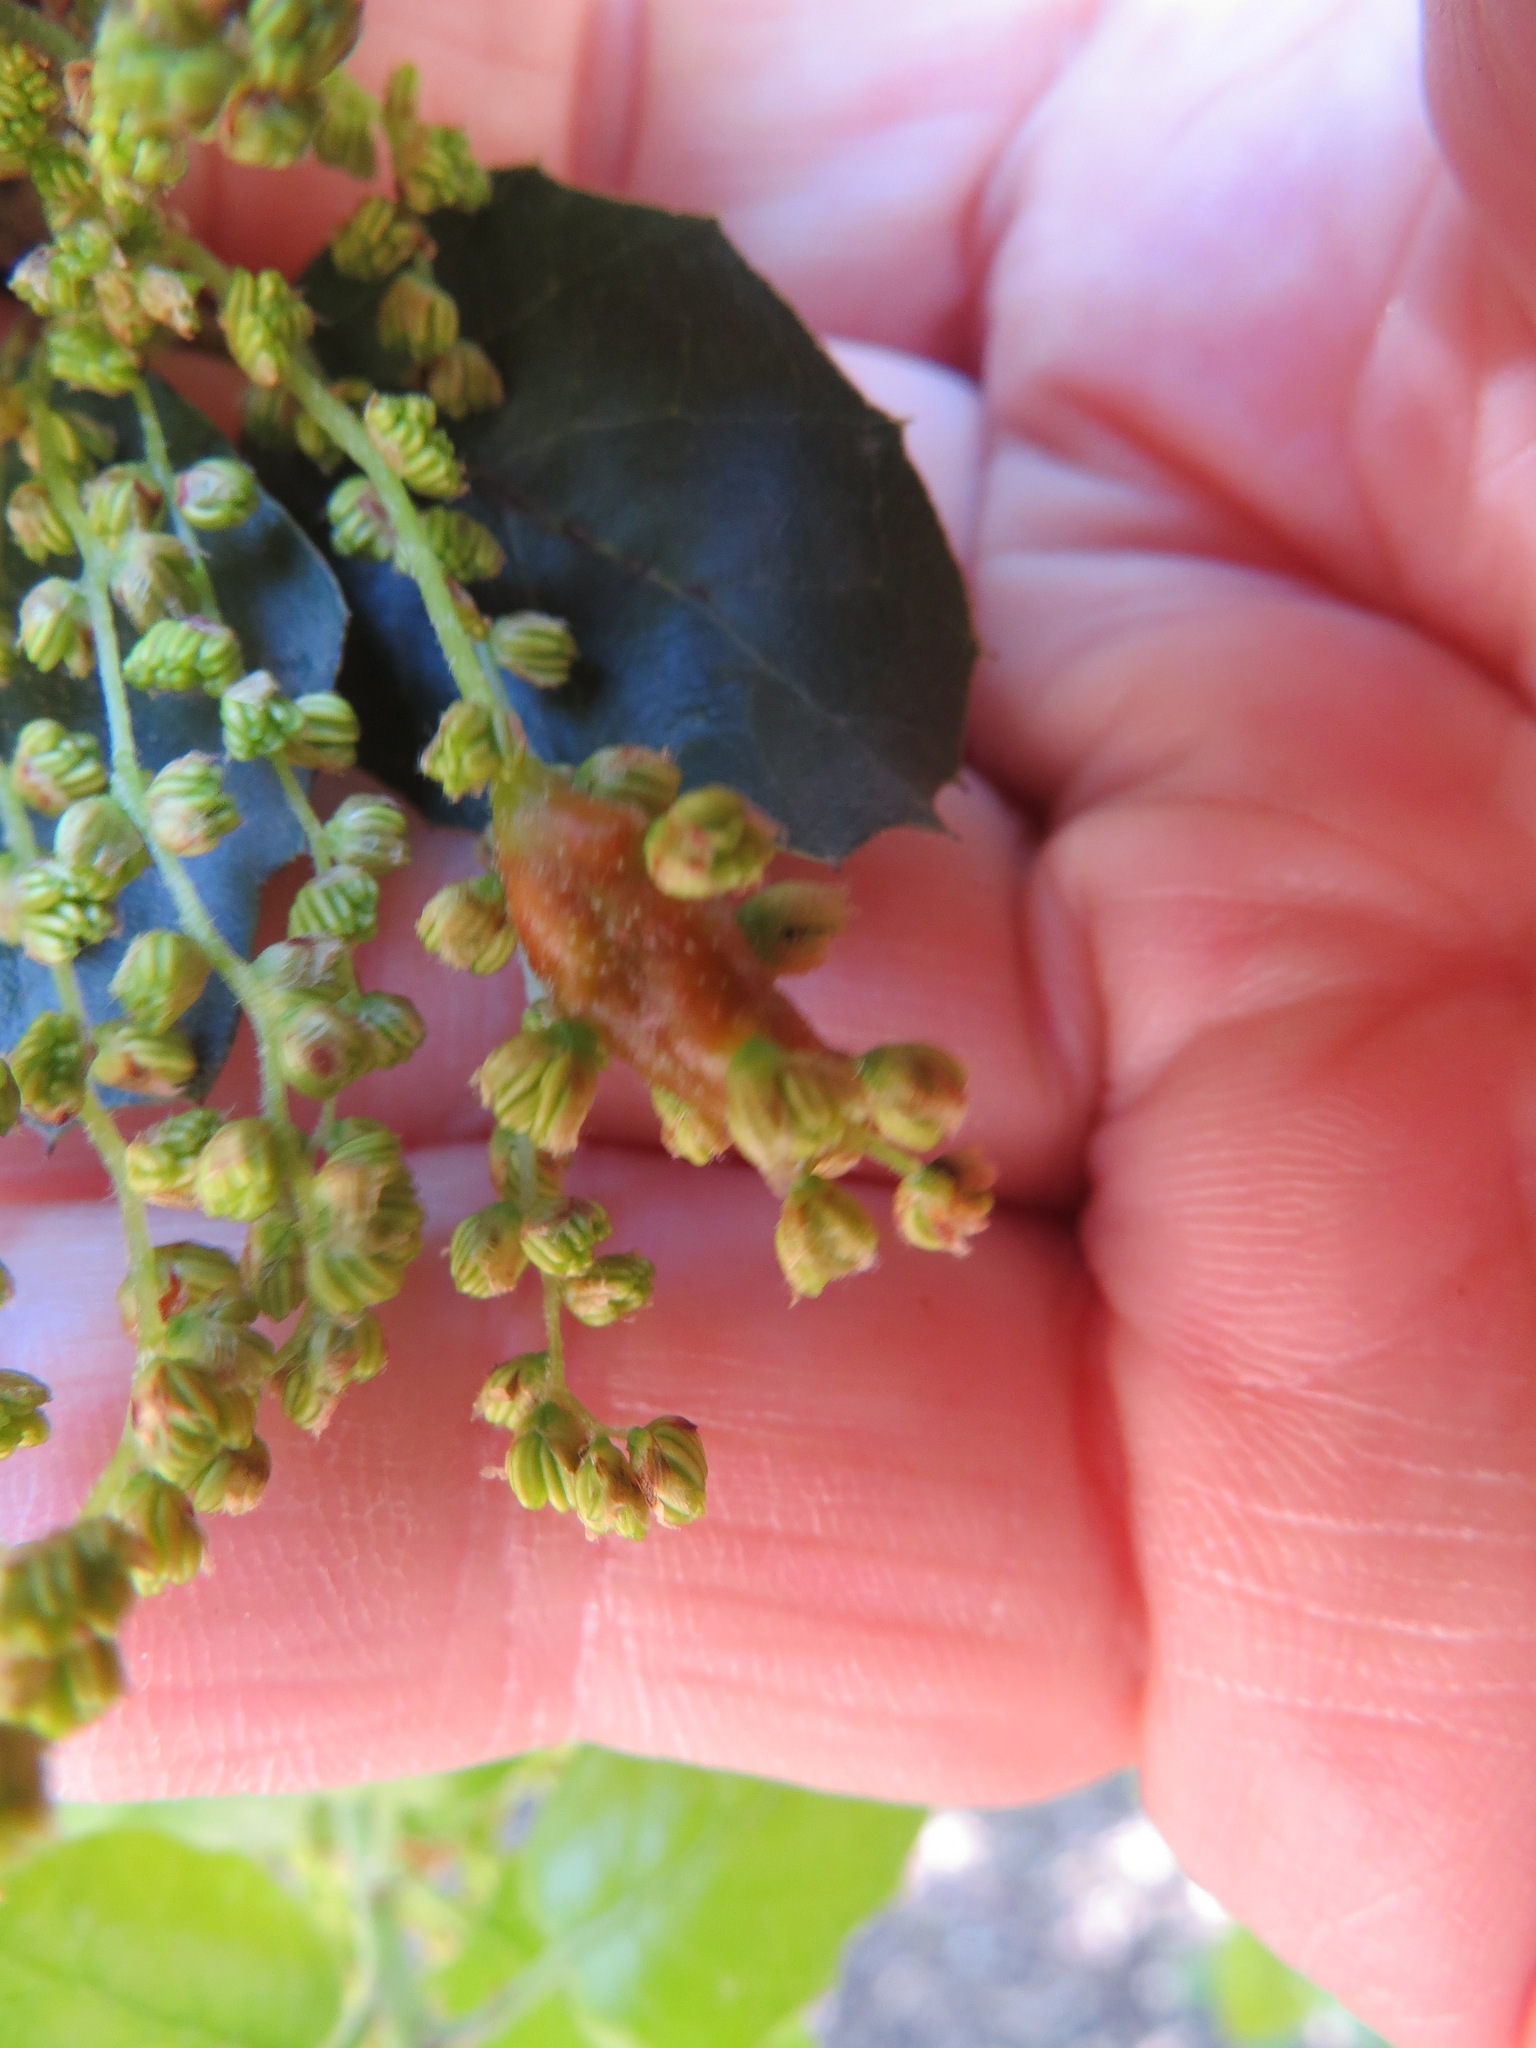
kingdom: Animalia
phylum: Arthropoda
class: Insecta
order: Hymenoptera
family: Cynipidae
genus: Callirhytis
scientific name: Callirhytis
